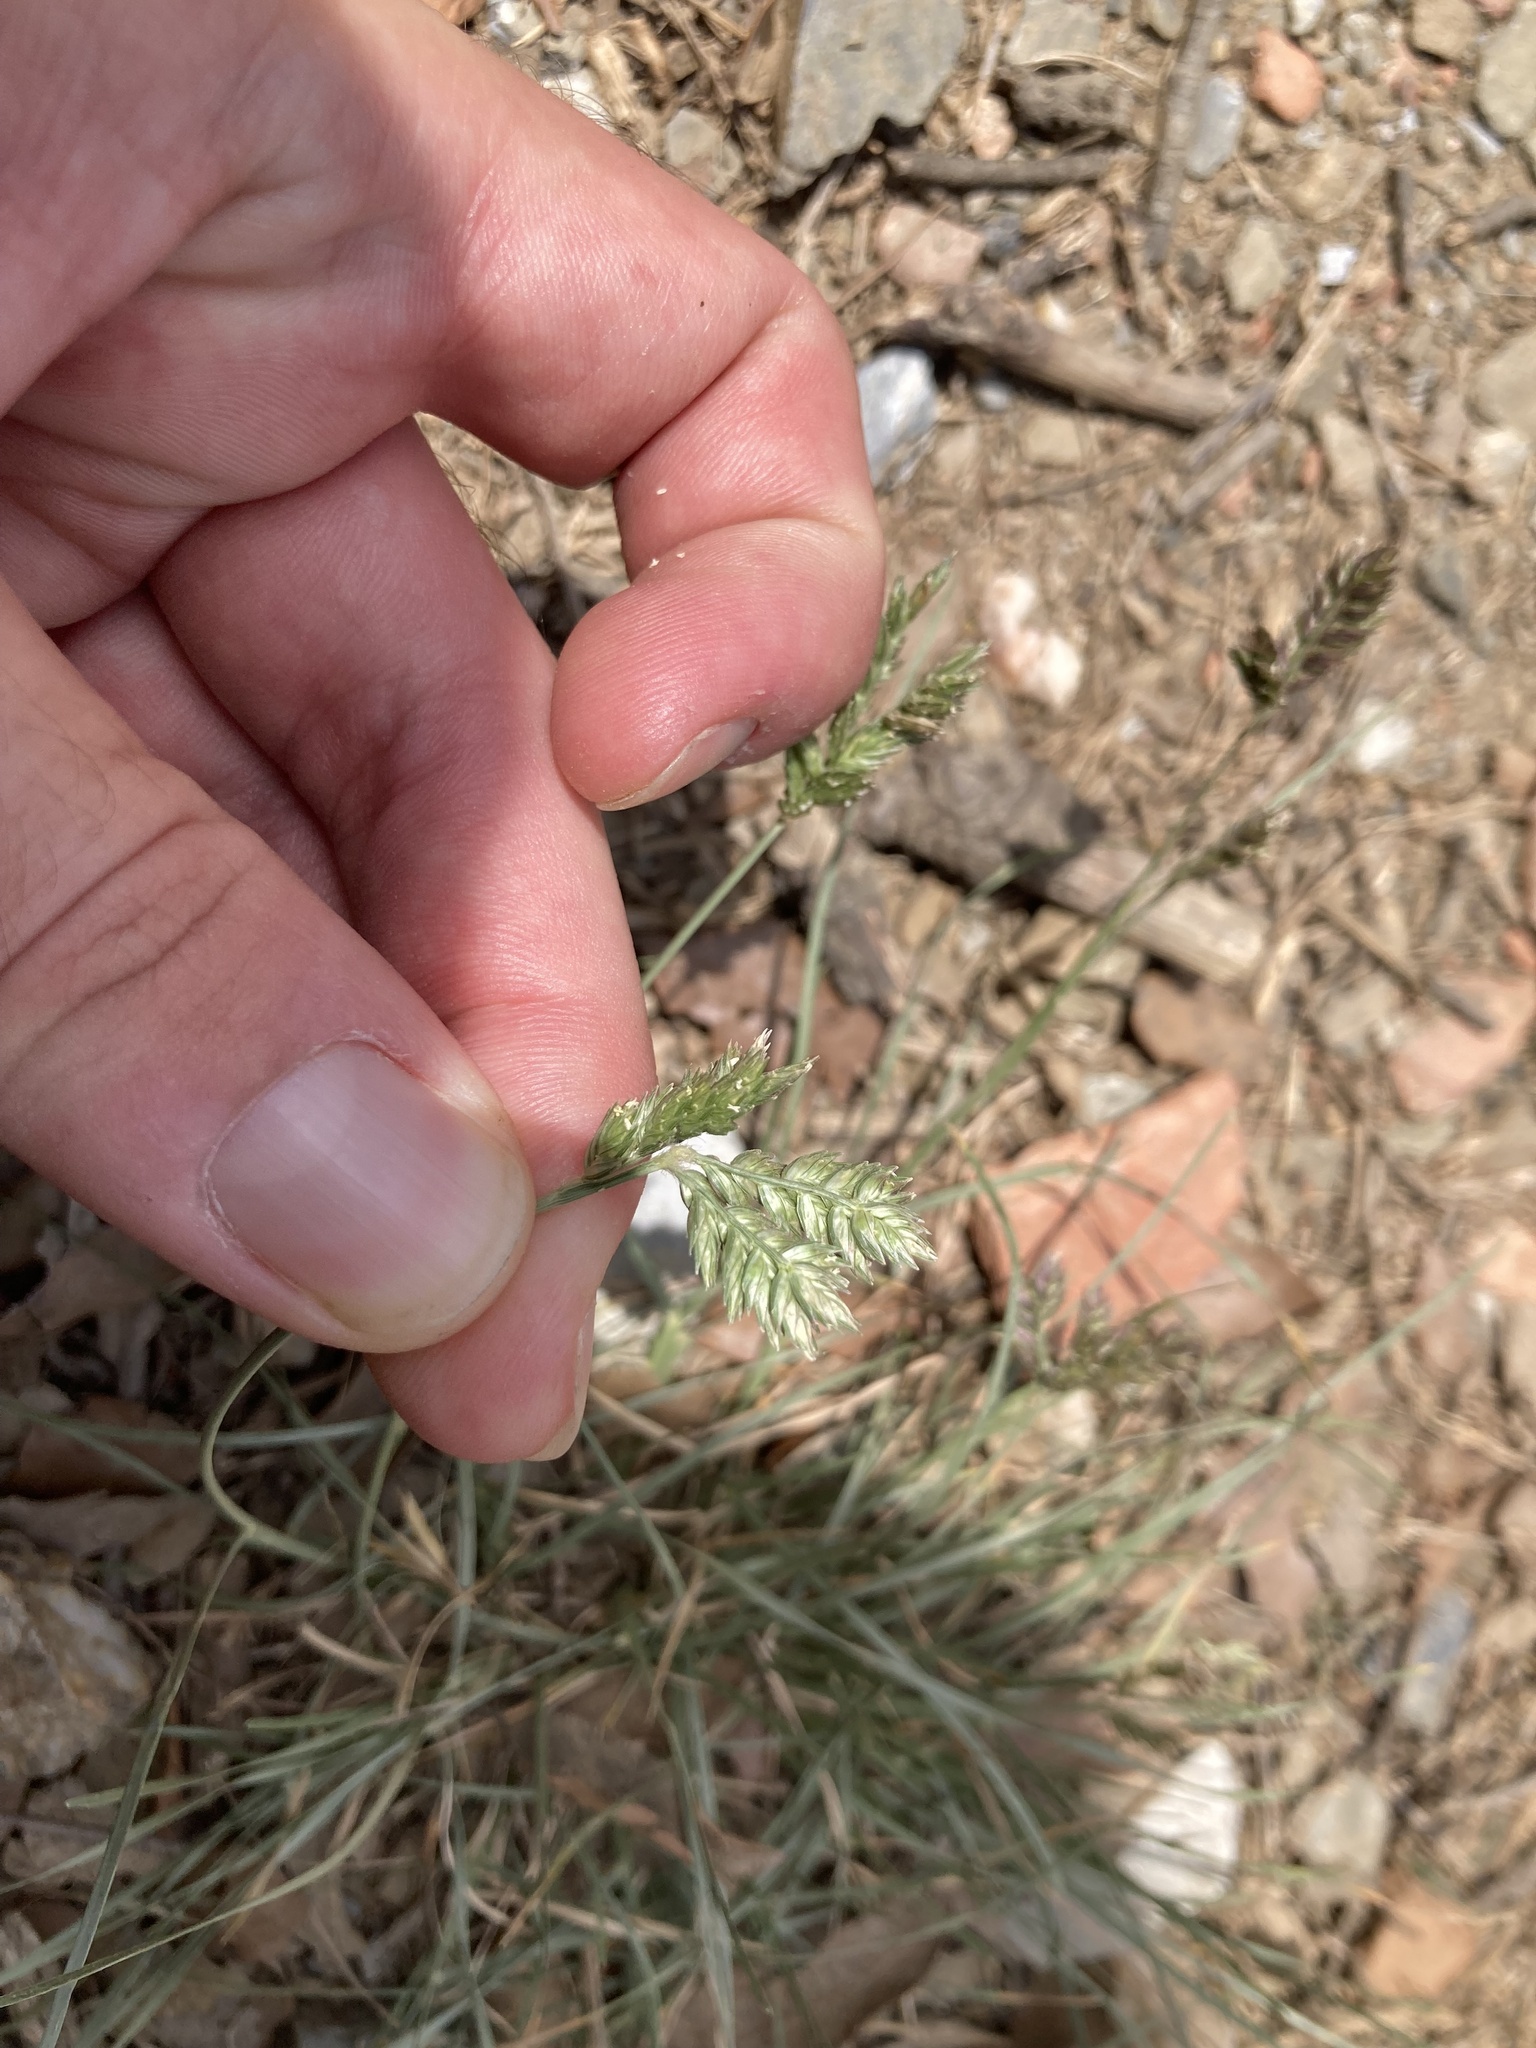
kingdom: Plantae
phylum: Tracheophyta
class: Liliopsida
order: Poales
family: Poaceae
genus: Eleusine
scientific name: Eleusine tristachya
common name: American yard-grass
